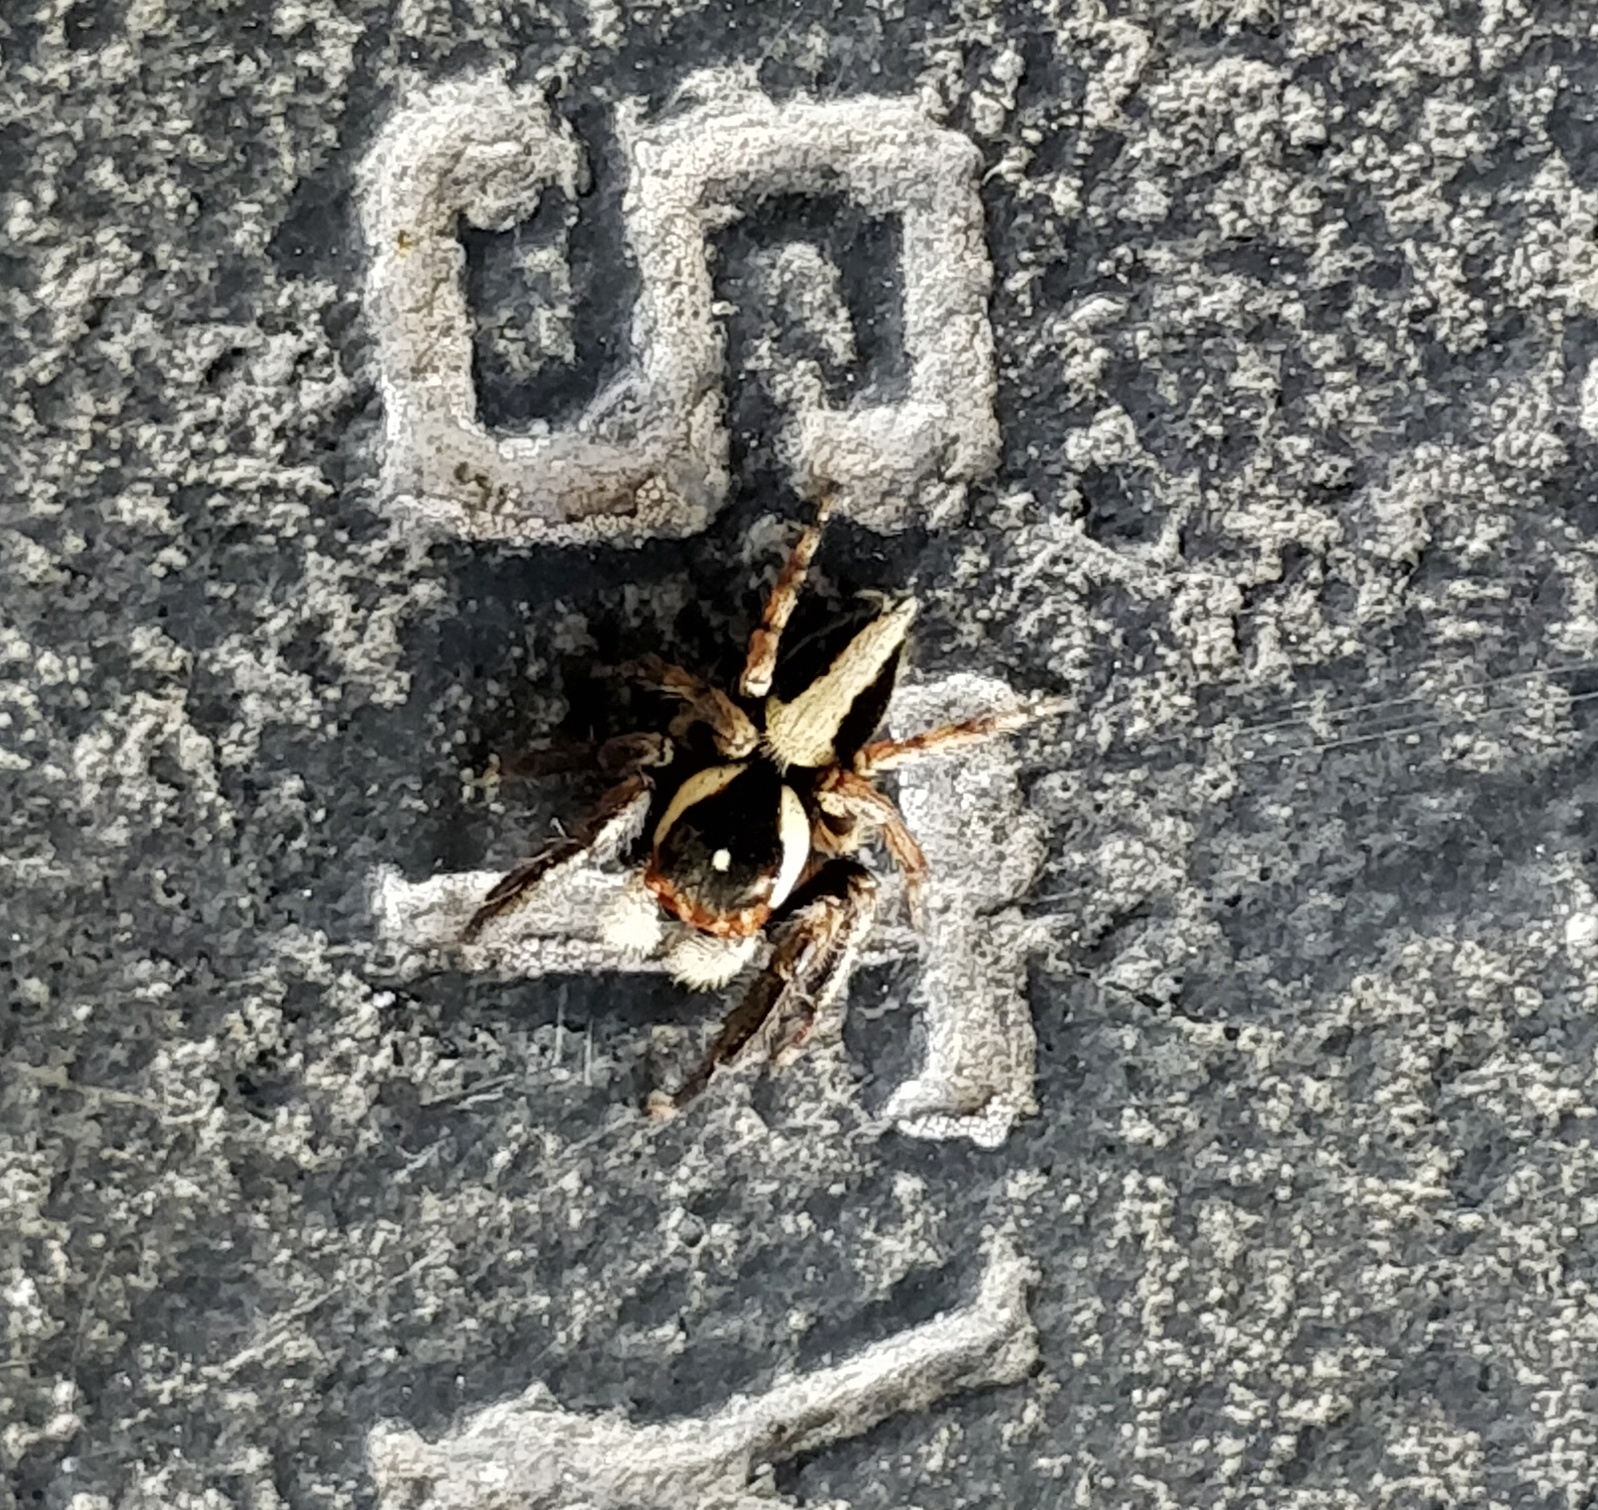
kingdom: Animalia
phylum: Arthropoda
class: Arachnida
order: Araneae
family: Salticidae
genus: Hyllus
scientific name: Hyllus manu
